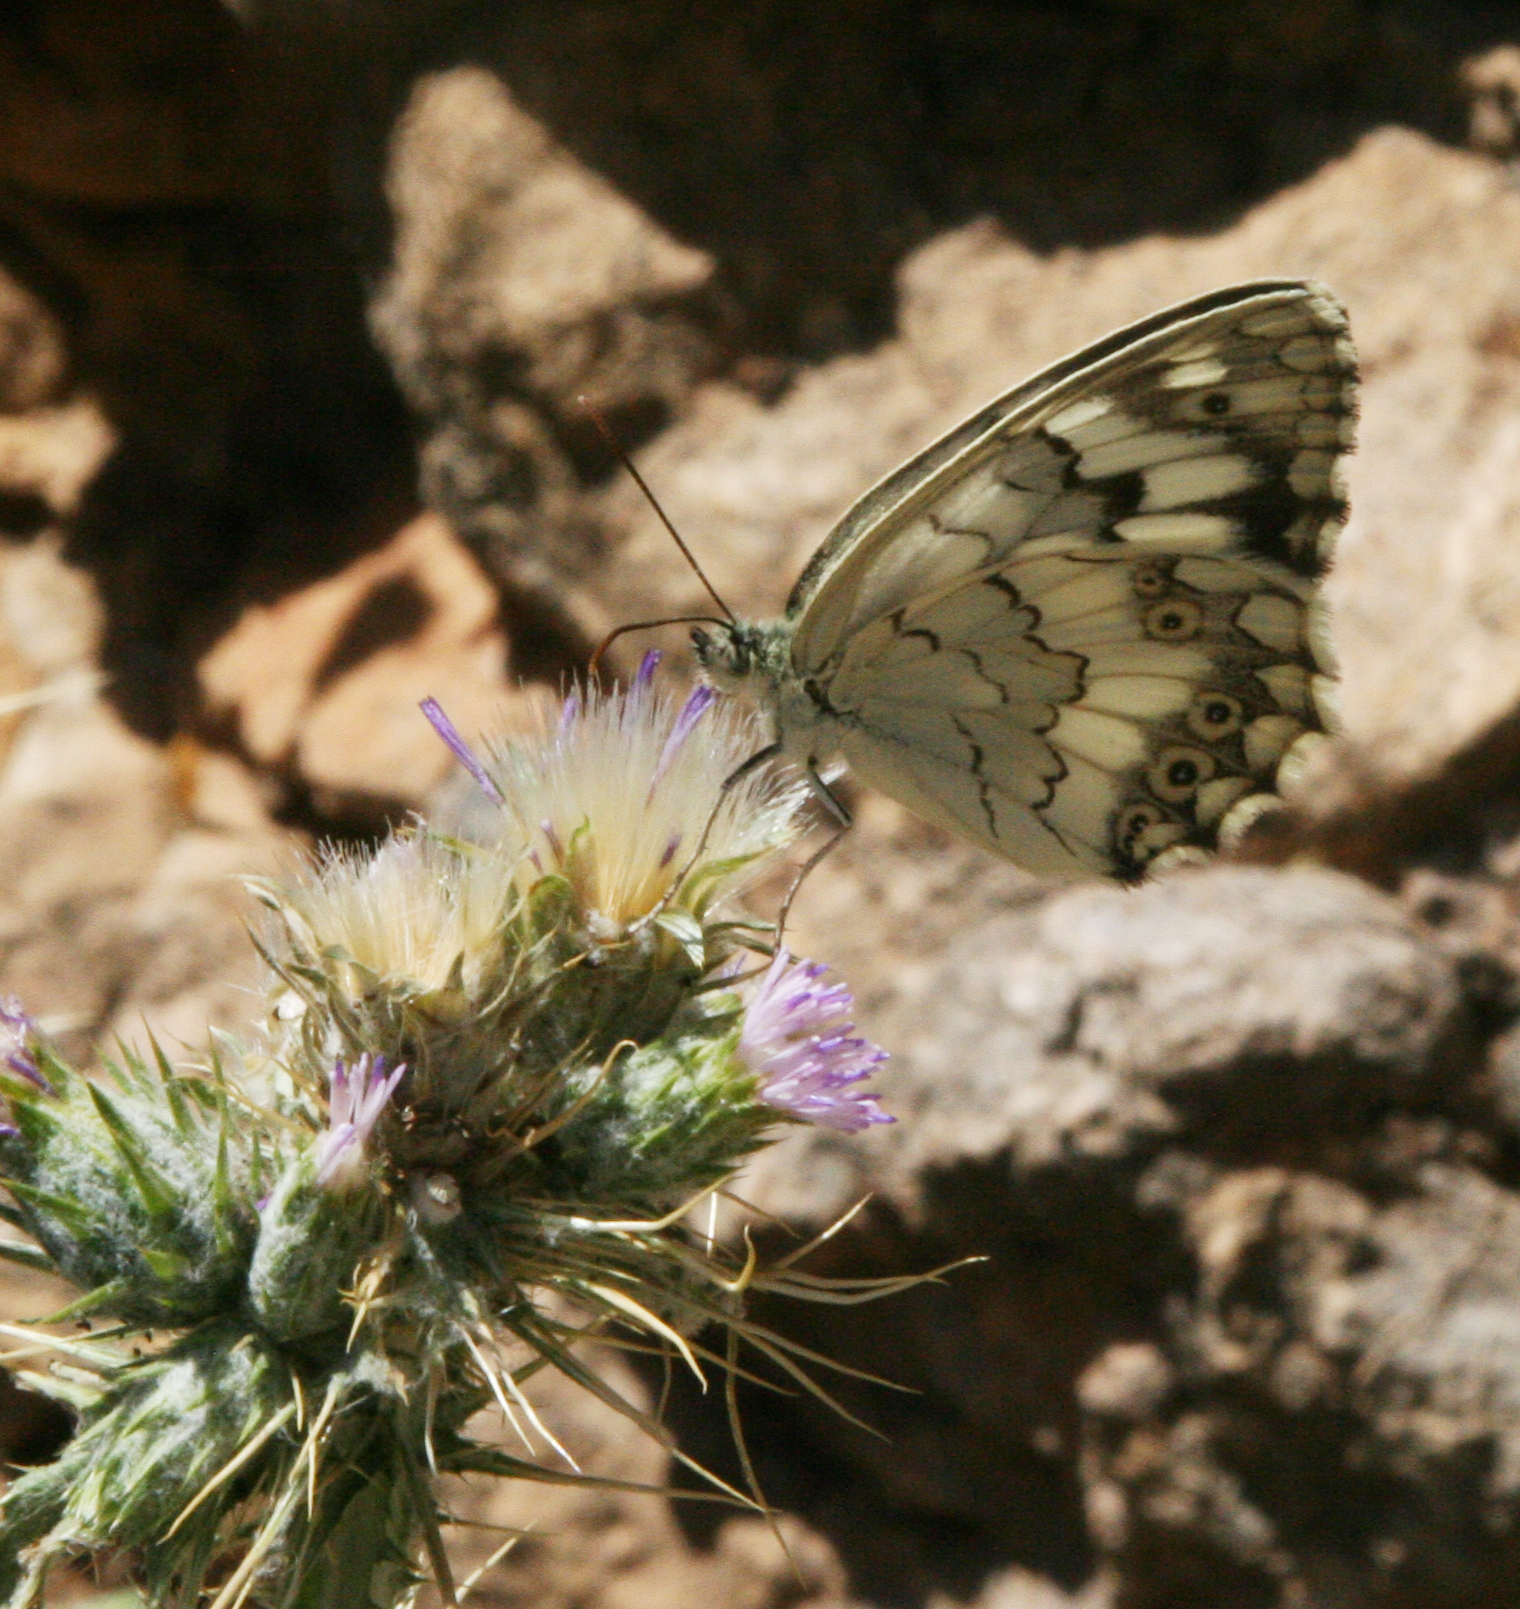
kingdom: Animalia
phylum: Arthropoda
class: Insecta
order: Lepidoptera
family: Nymphalidae
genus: Melanargia
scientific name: Melanargia larissa
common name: Balkan marbled white
